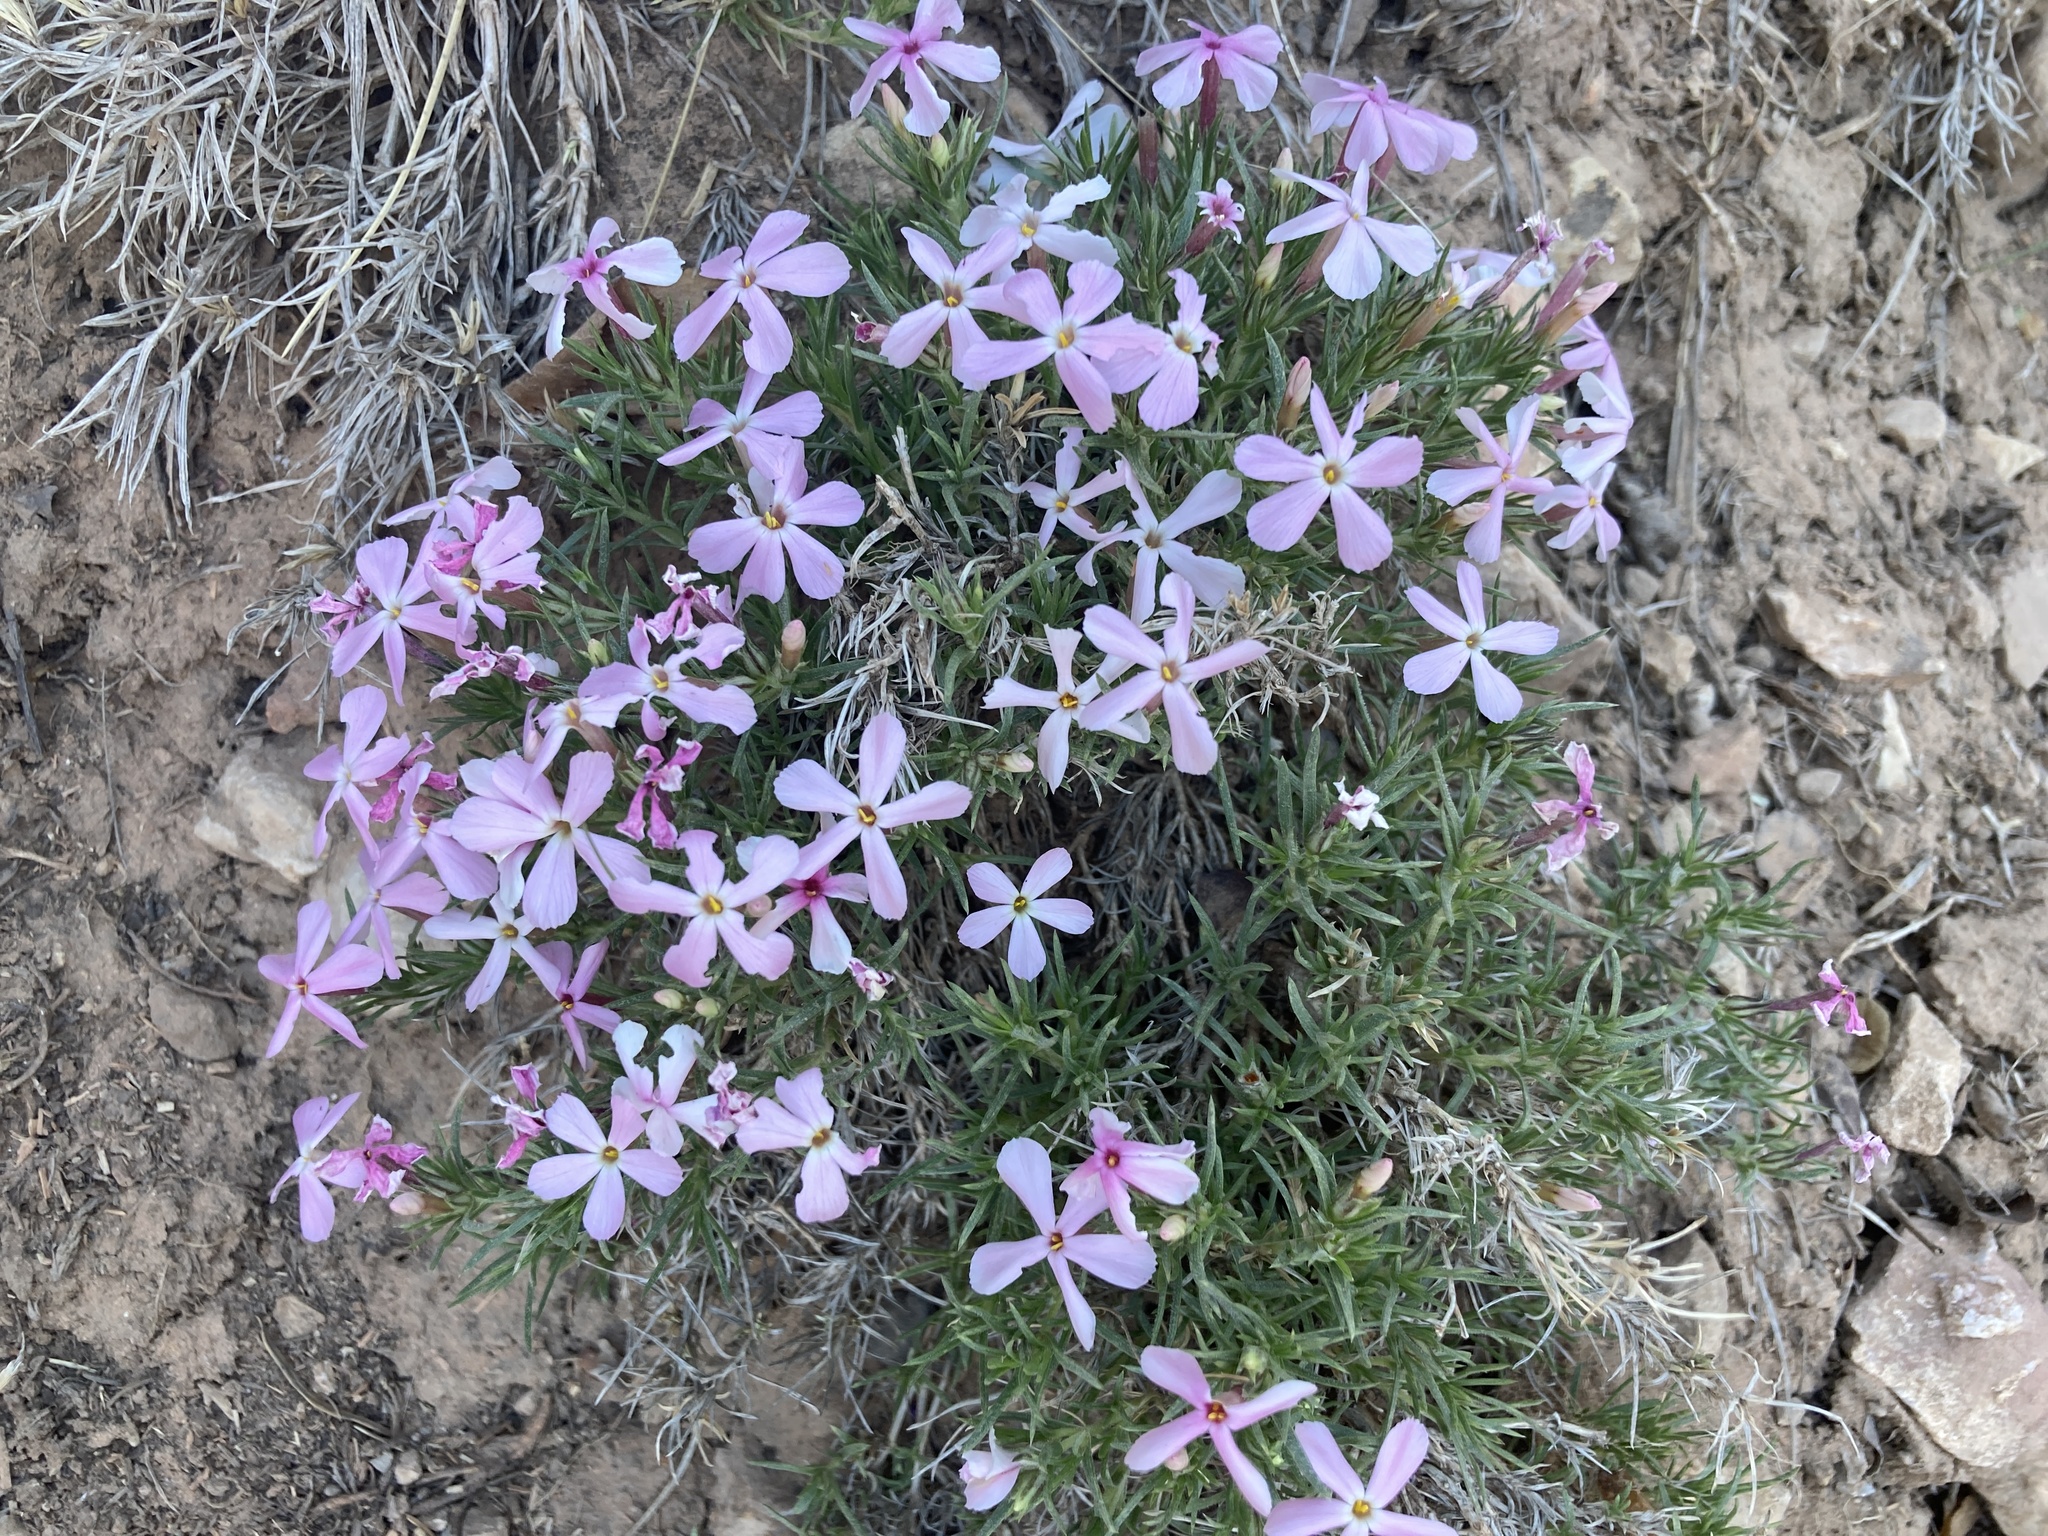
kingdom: Plantae
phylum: Tracheophyta
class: Magnoliopsida
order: Ericales
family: Polemoniaceae
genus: Phlox
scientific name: Phlox austromontana
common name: Desert phlox
